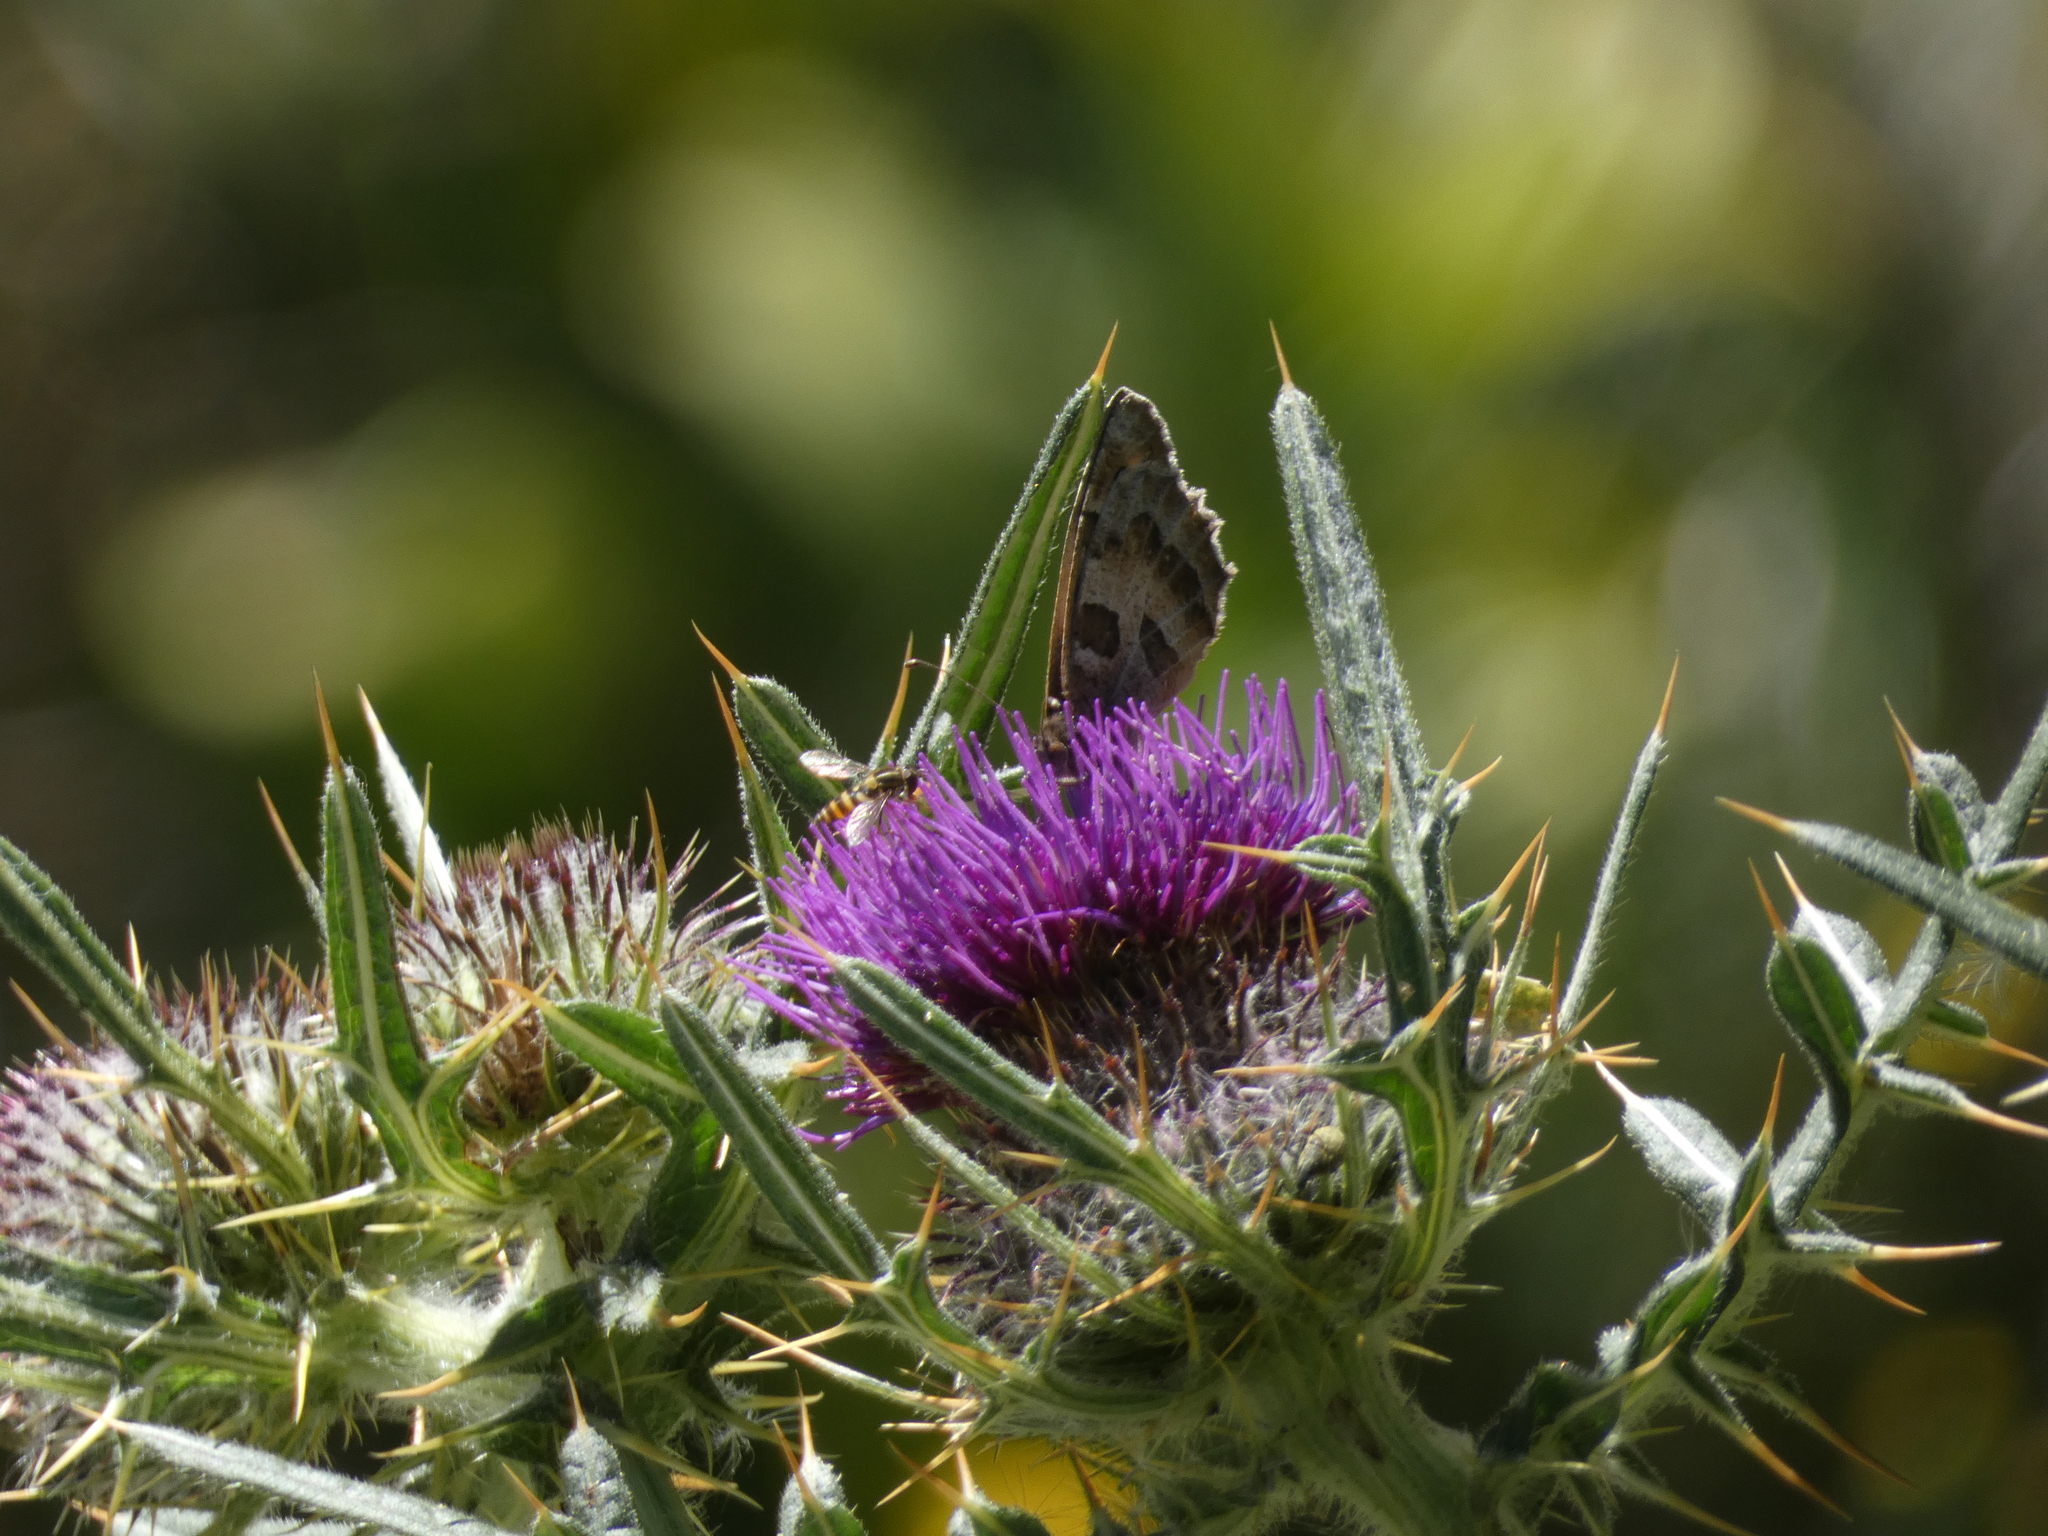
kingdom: Animalia
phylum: Arthropoda
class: Insecta
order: Lepidoptera
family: Nymphalidae
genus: Satyrus
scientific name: Satyrus briseis
